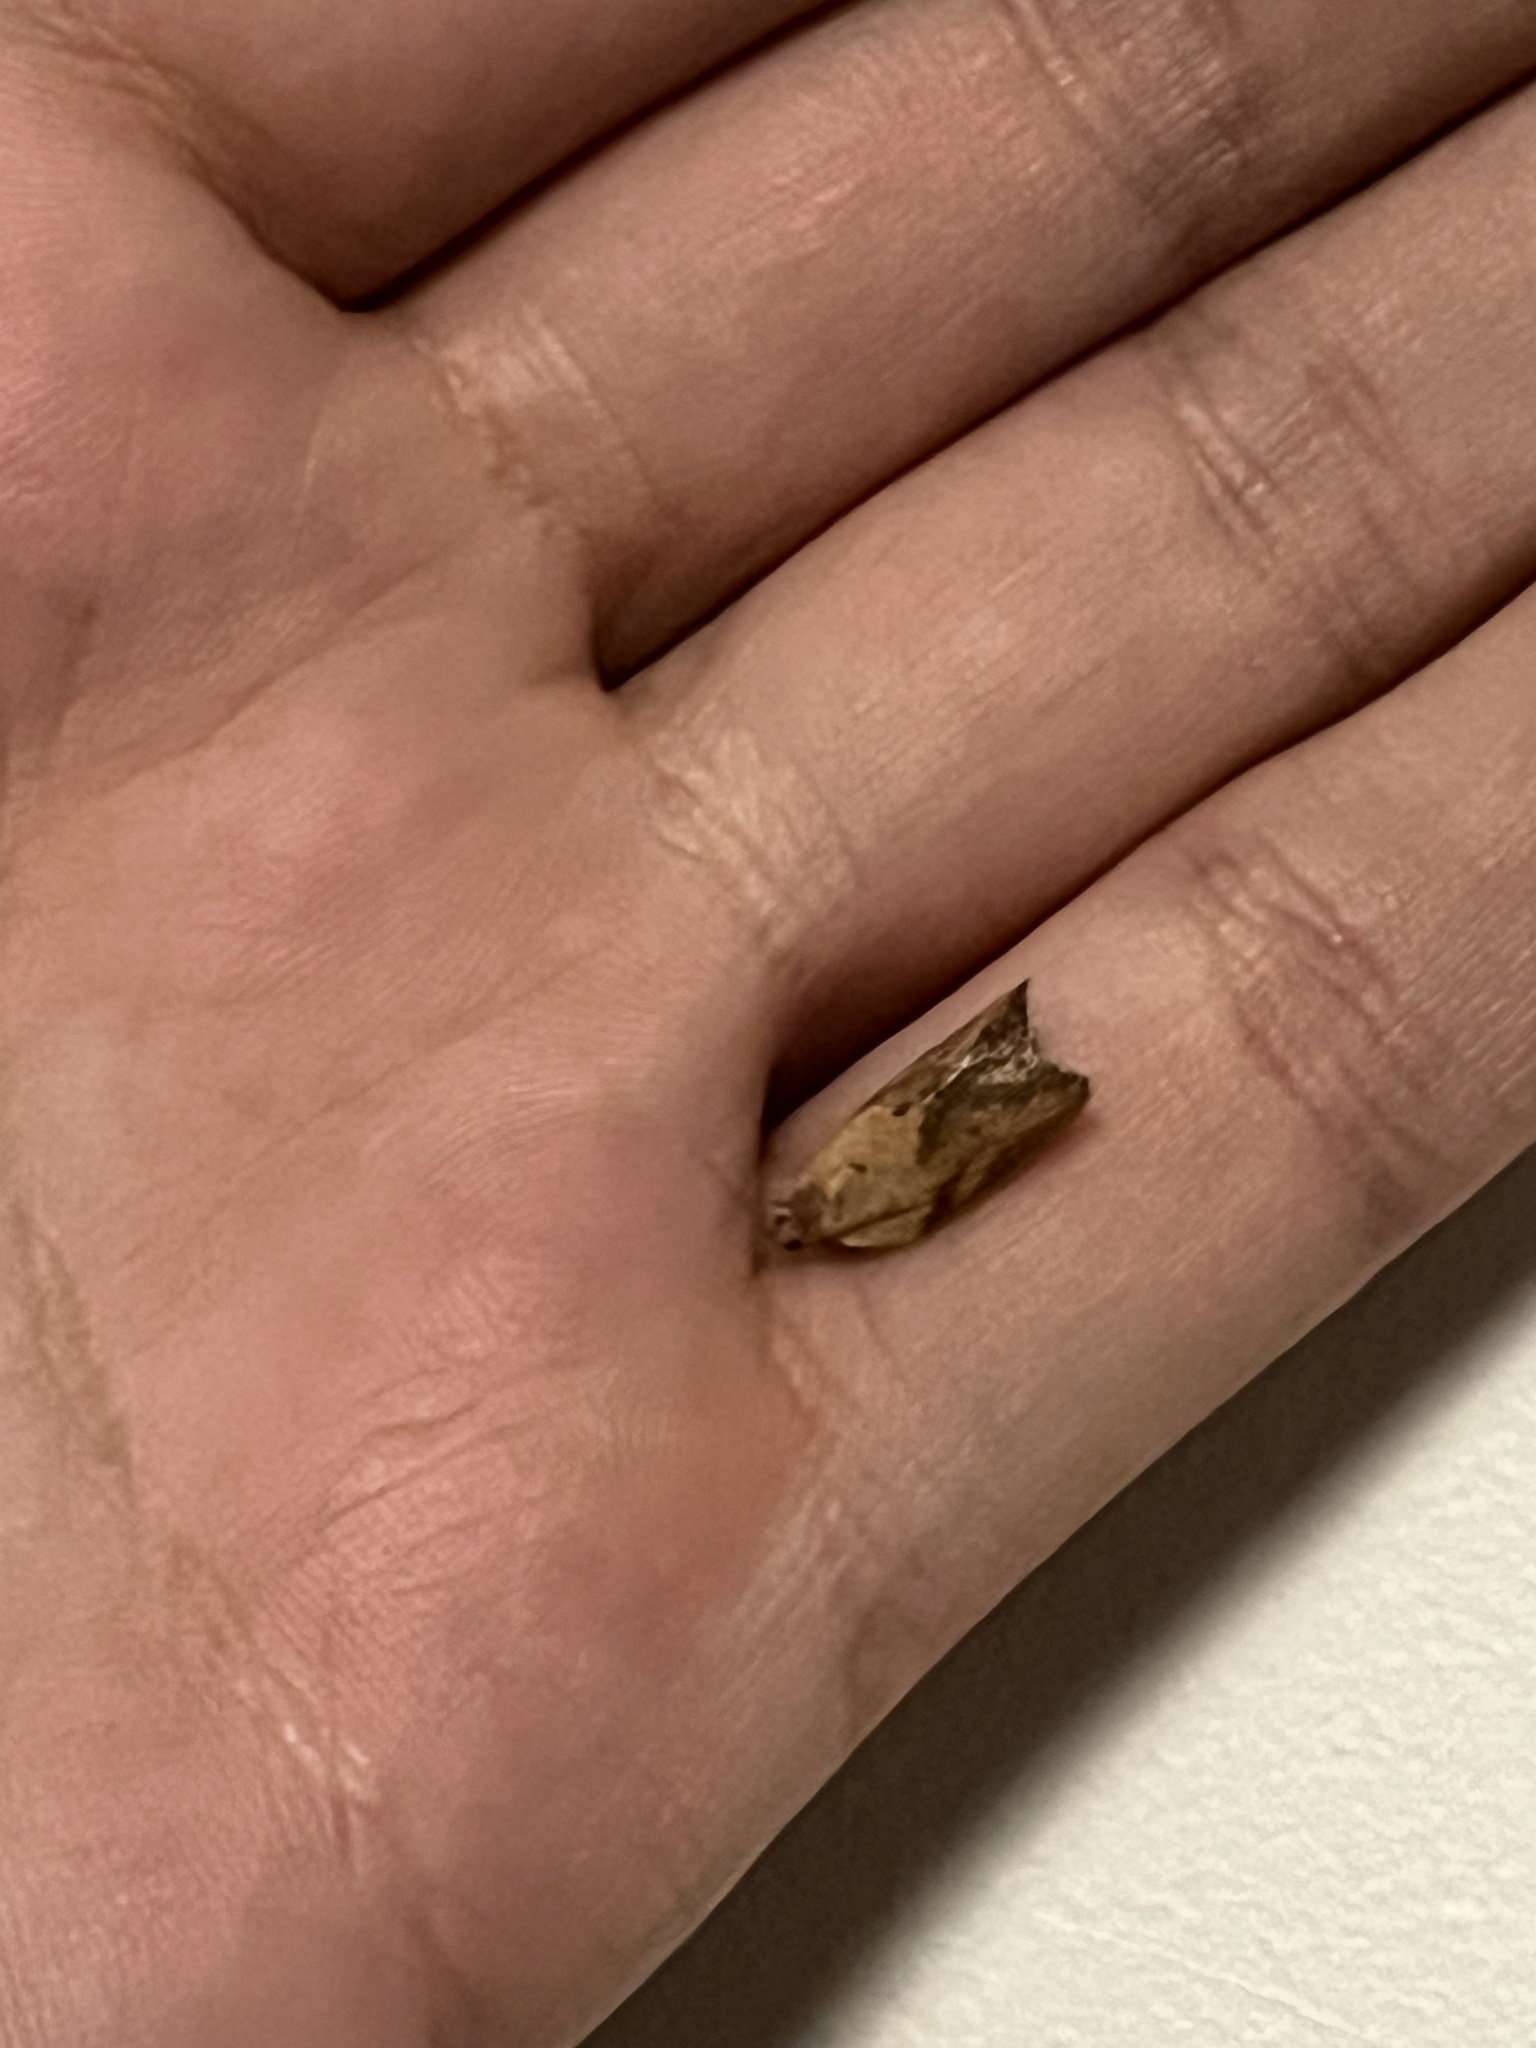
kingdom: Animalia
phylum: Arthropoda
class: Insecta
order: Lepidoptera
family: Tortricidae
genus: Epiphyas
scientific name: Epiphyas postvittana
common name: Light brown apple moth
